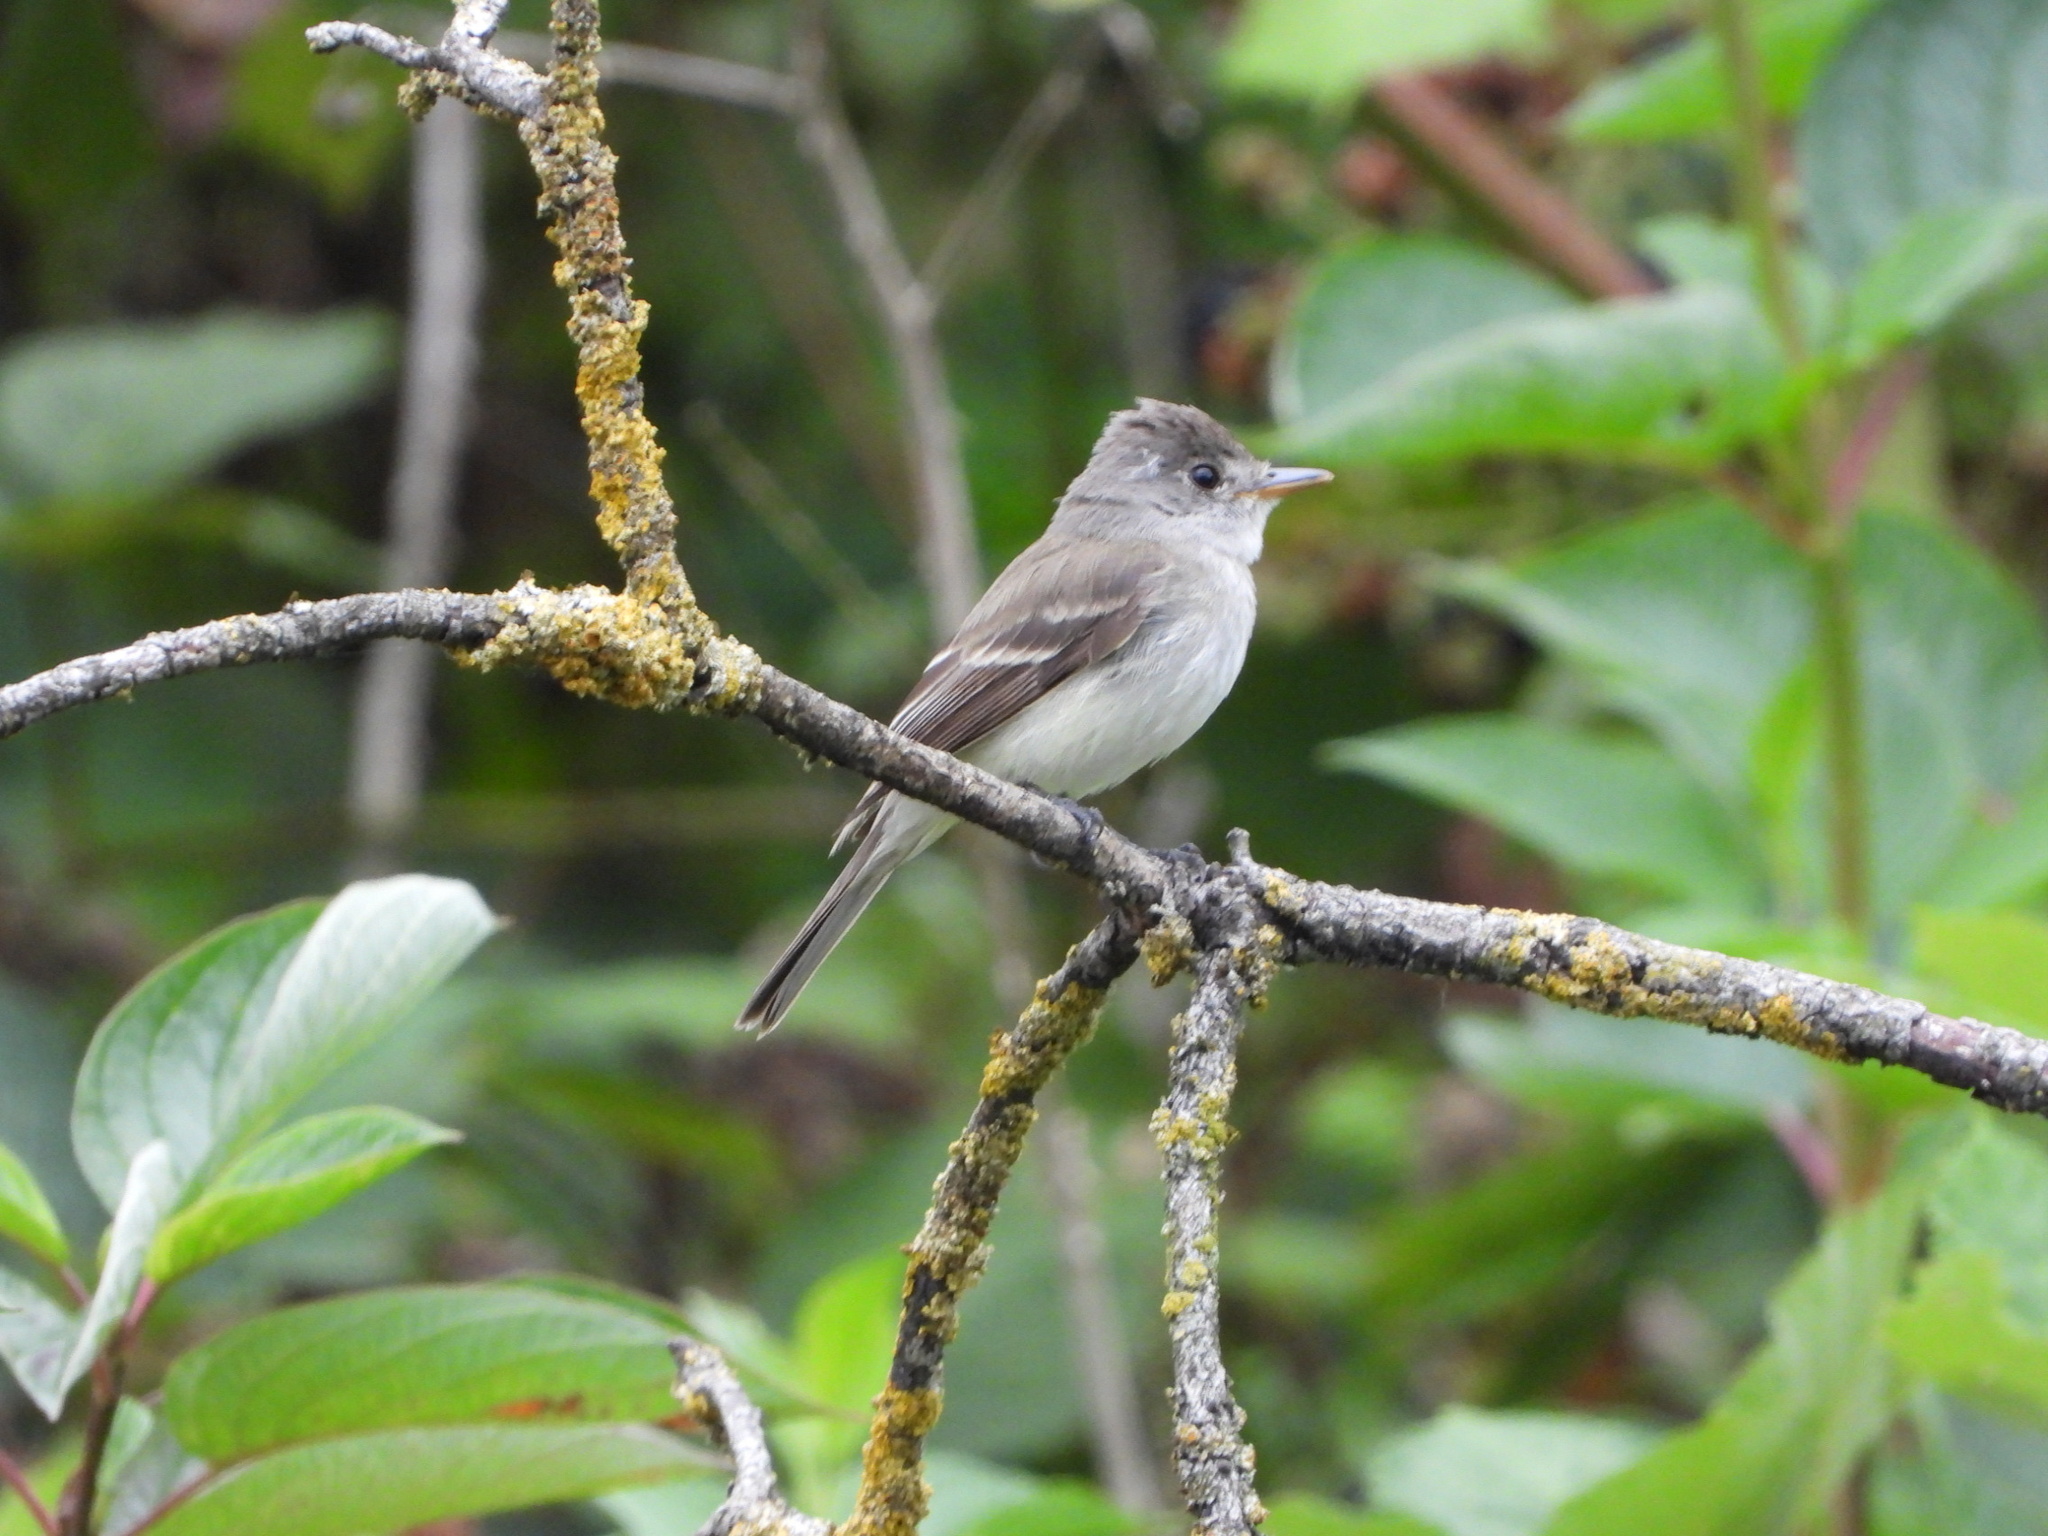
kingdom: Animalia
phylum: Chordata
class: Aves
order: Passeriformes
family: Tyrannidae
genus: Empidonax
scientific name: Empidonax traillii
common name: Willow flycatcher
